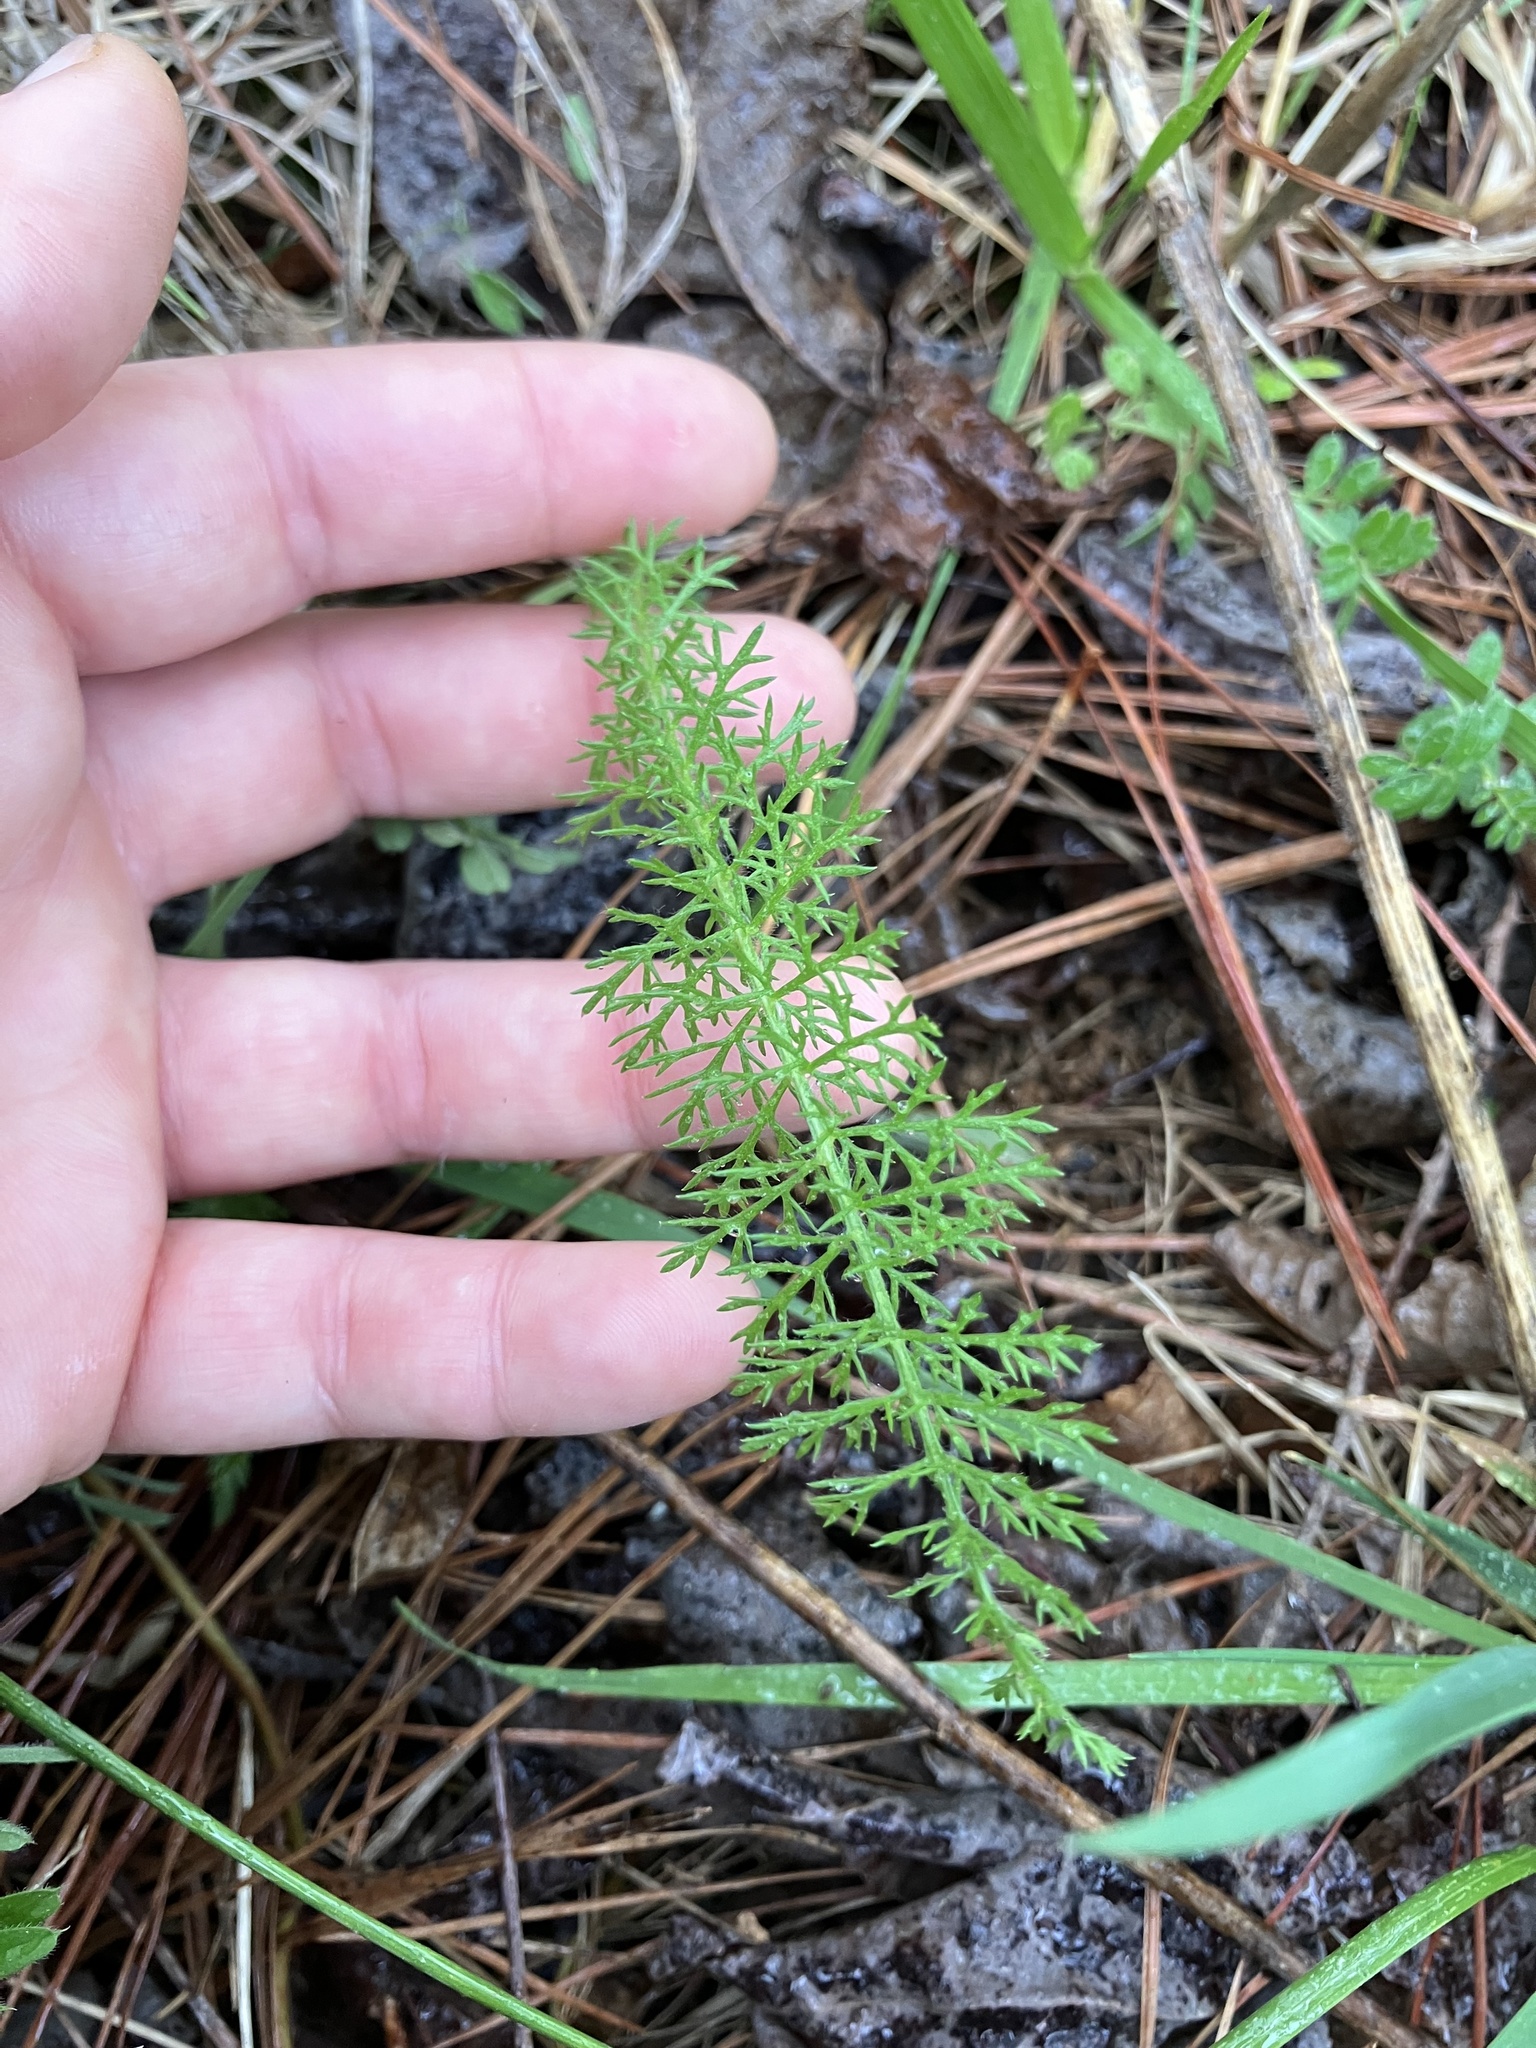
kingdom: Plantae
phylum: Tracheophyta
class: Magnoliopsida
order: Asterales
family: Asteraceae
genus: Achillea
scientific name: Achillea millefolium
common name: Yarrow
